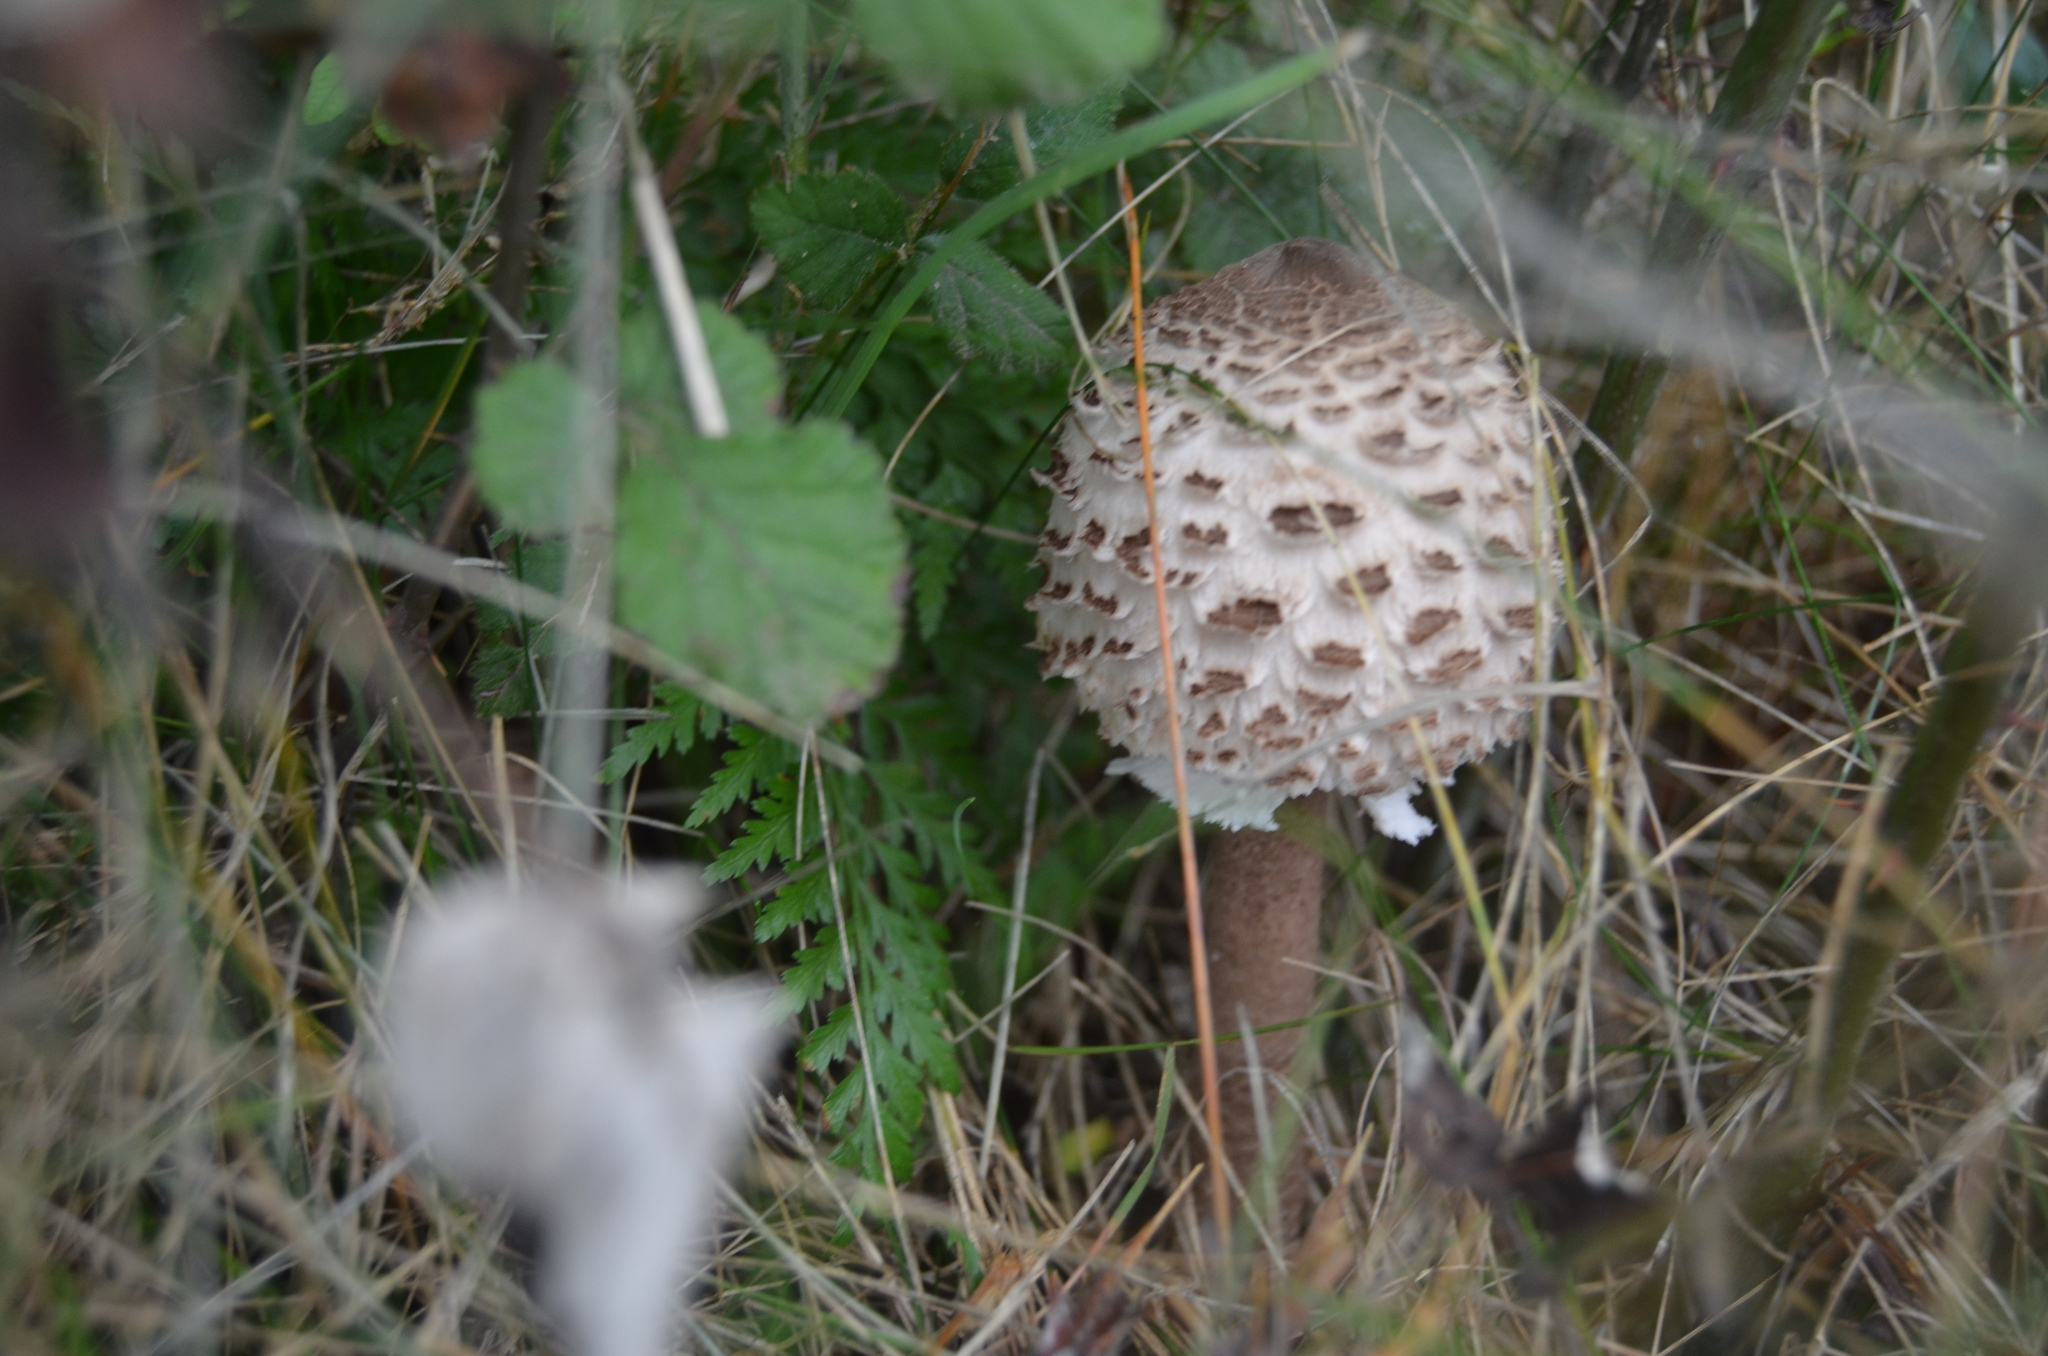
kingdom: Fungi
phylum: Basidiomycota
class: Agaricomycetes
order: Agaricales
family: Agaricaceae
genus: Macrolepiota
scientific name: Macrolepiota procera
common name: Parasol
